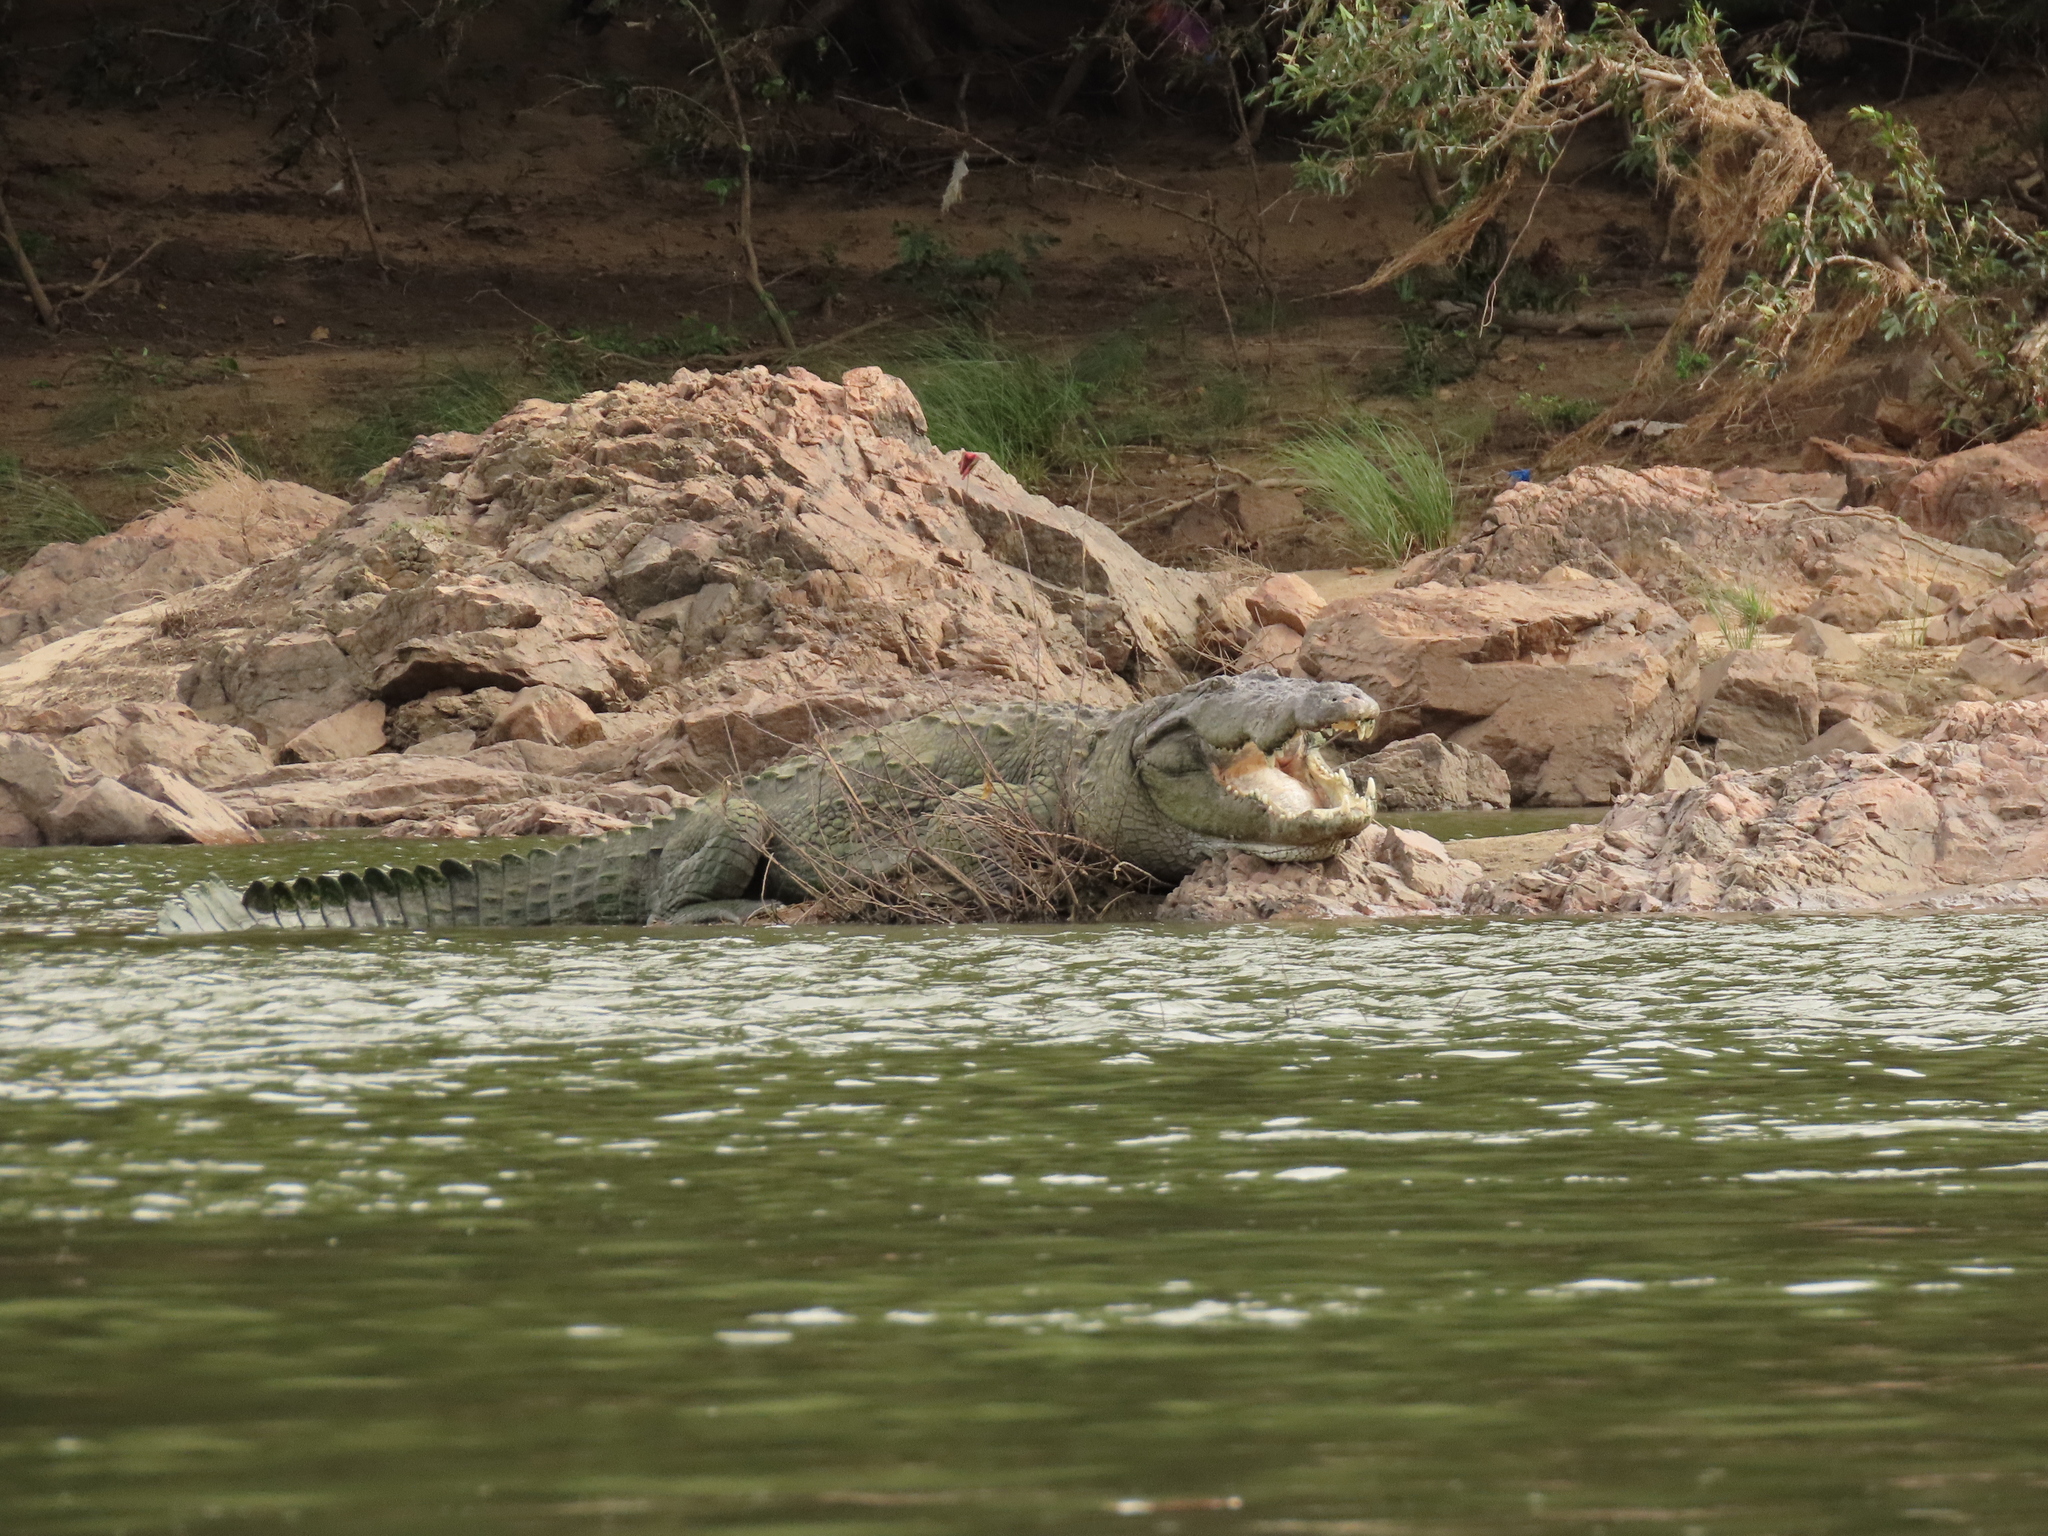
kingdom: Animalia
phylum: Chordata
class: Crocodylia
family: Crocodylidae
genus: Crocodylus
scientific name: Crocodylus palustris
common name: Mugger crocodile
